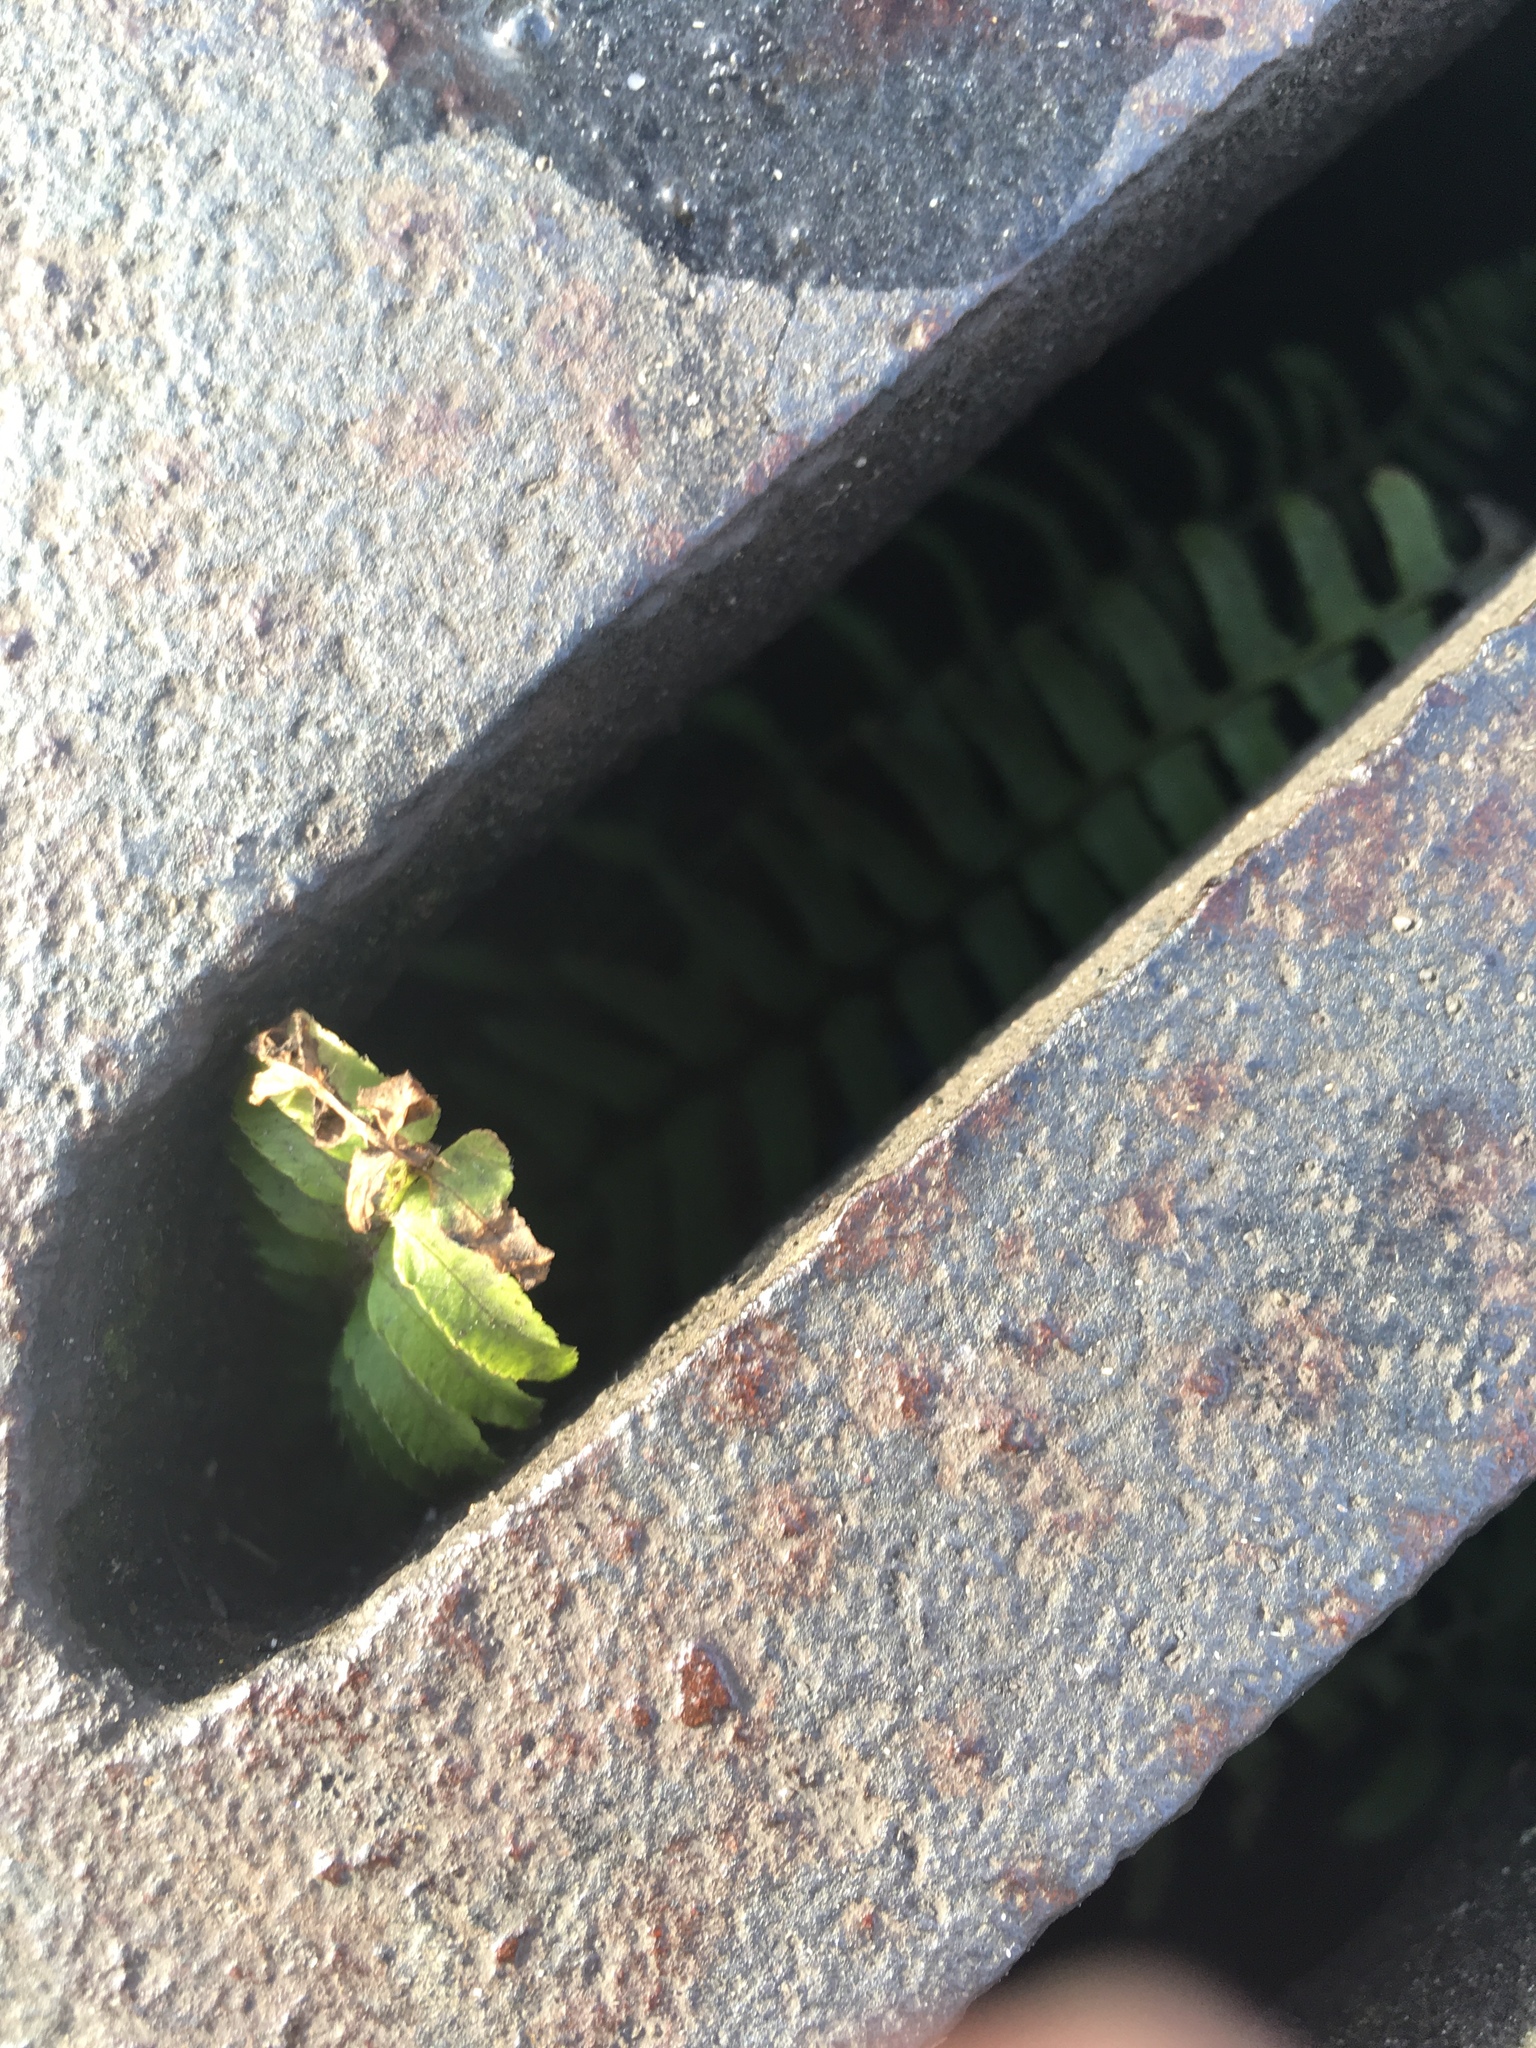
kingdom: Plantae
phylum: Tracheophyta
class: Polypodiopsida
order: Polypodiales
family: Dryopteridaceae
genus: Polystichum
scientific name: Polystichum munitum
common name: Western sword-fern
